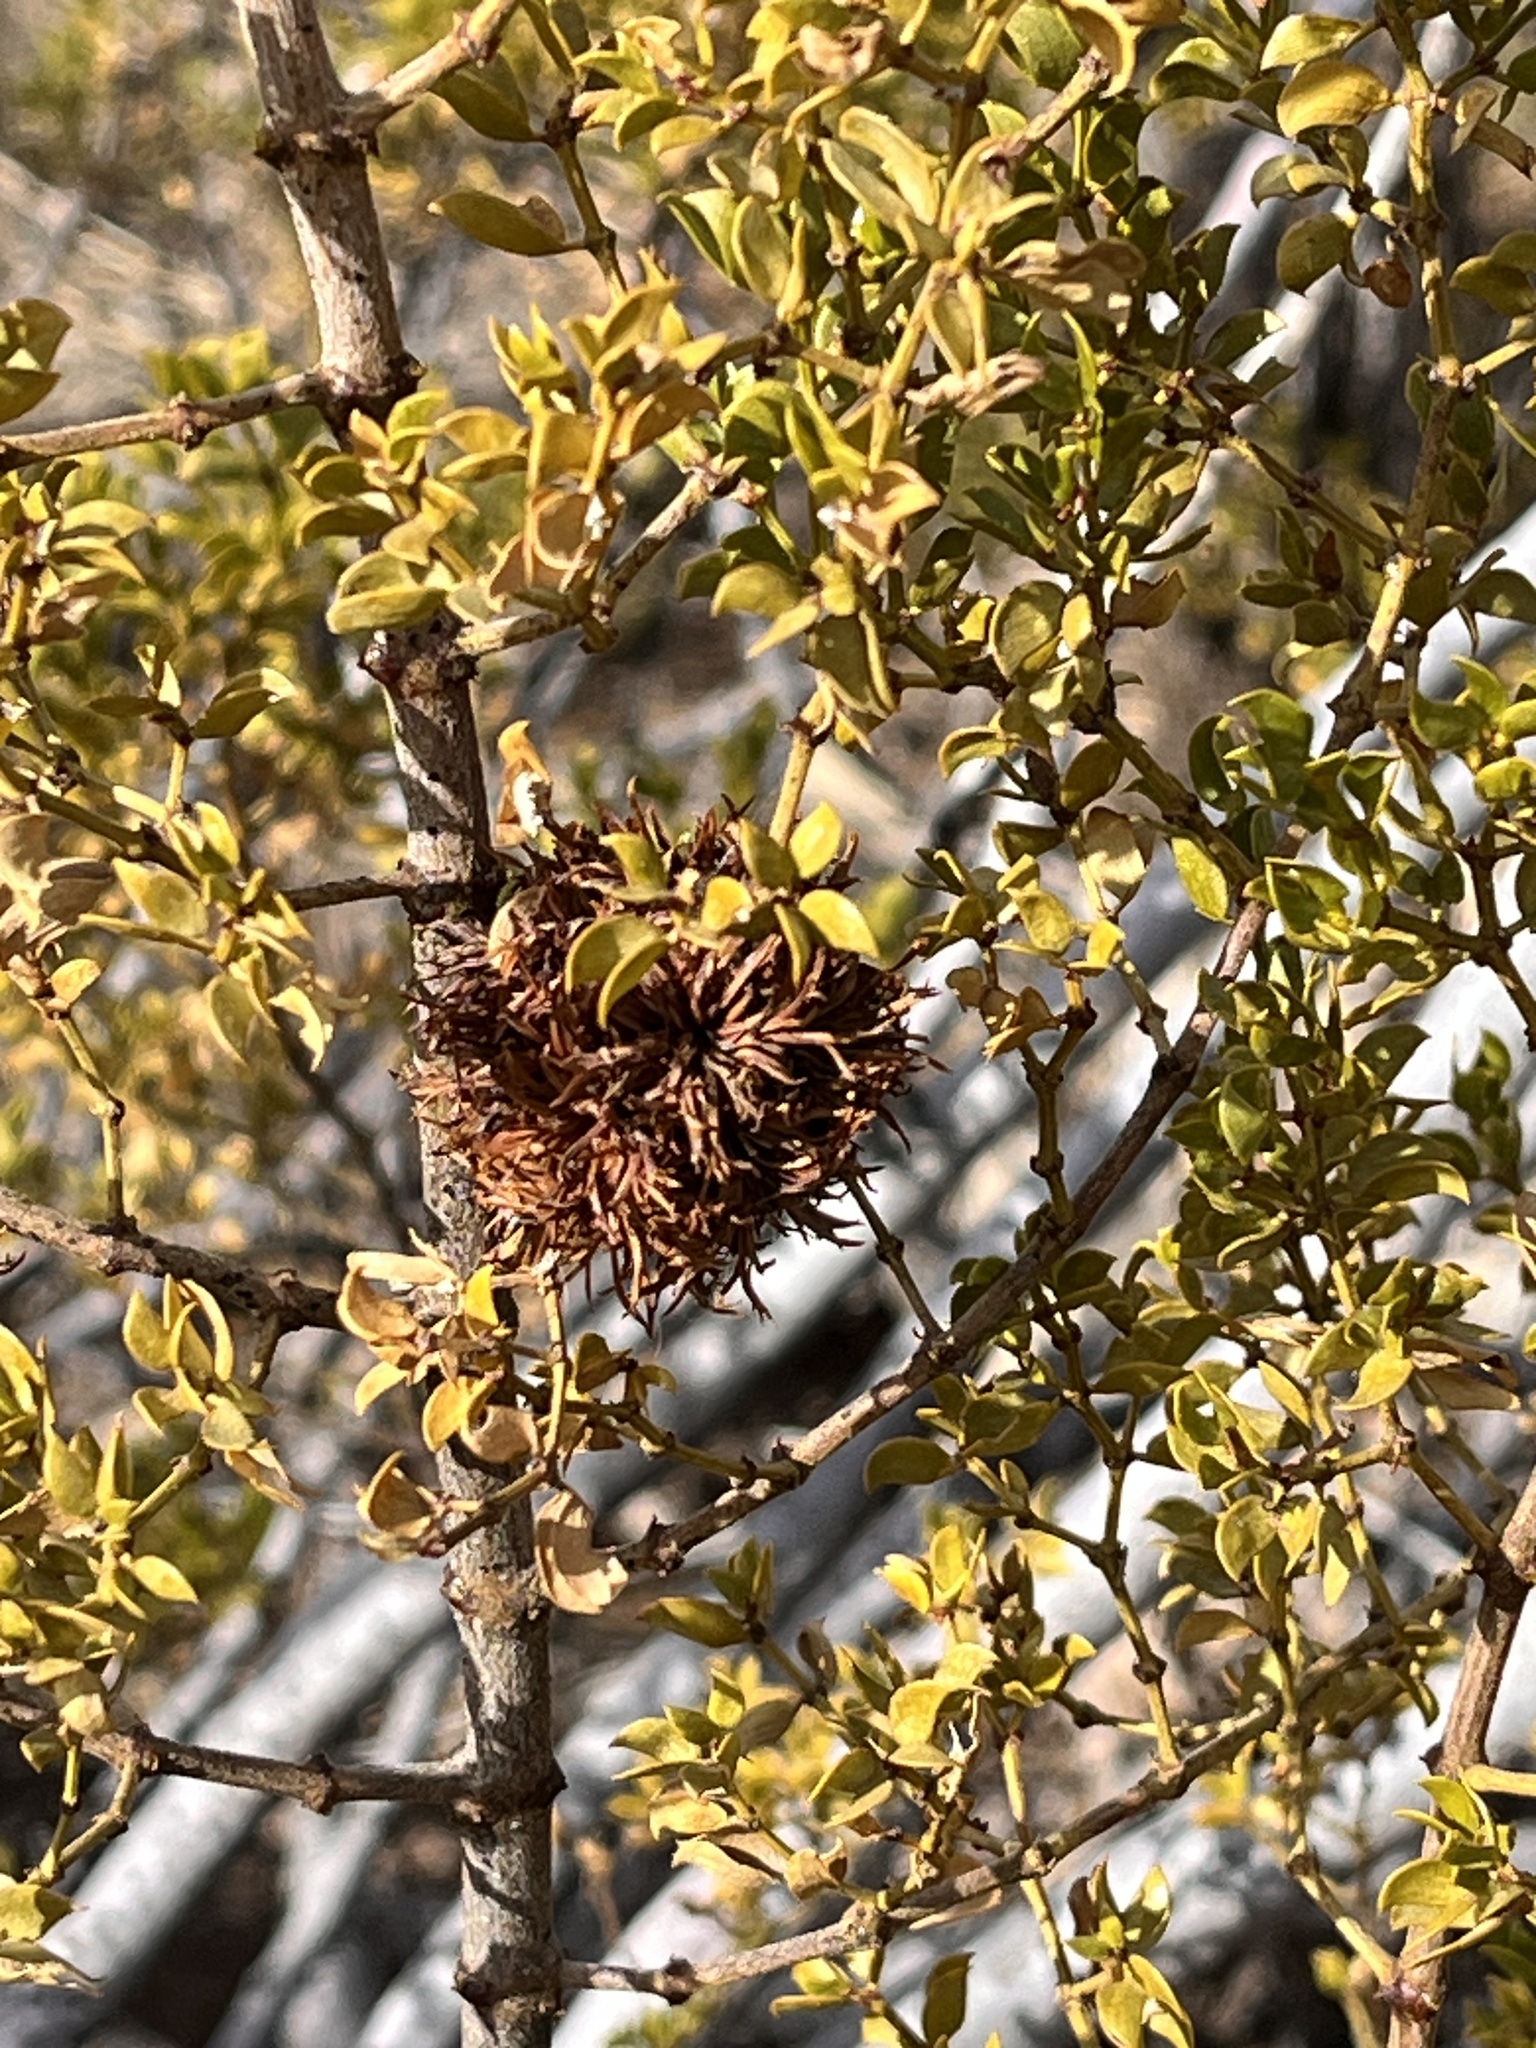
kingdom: Plantae
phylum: Tracheophyta
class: Magnoliopsida
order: Zygophyllales
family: Zygophyllaceae
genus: Larrea
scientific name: Larrea tridentata
